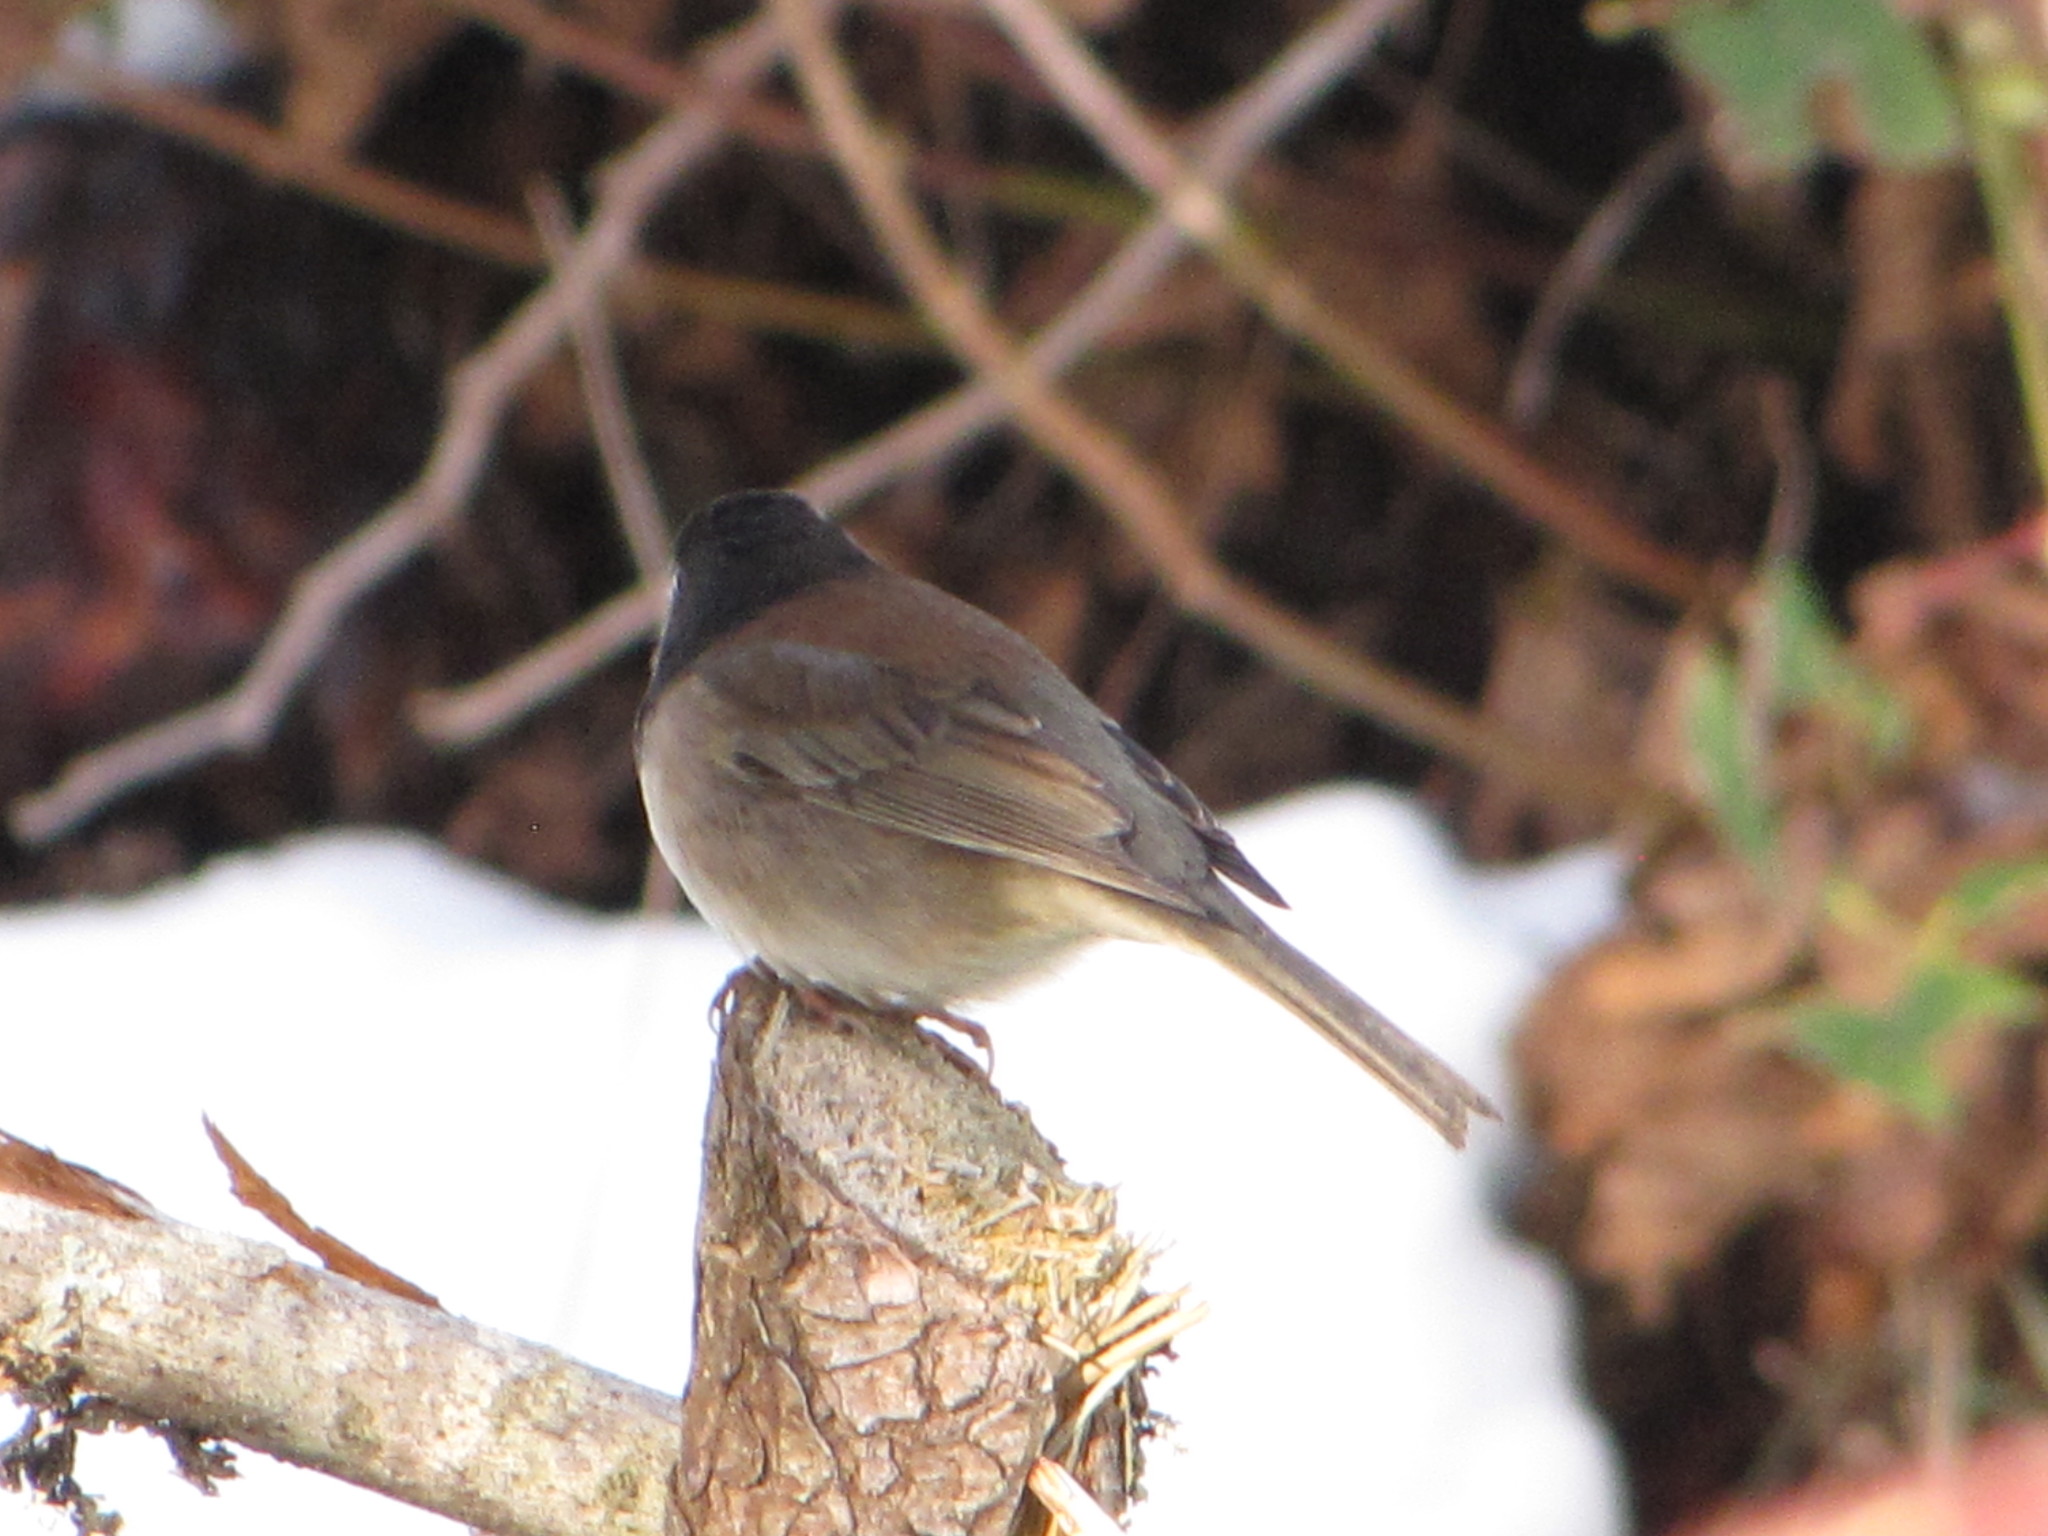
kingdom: Animalia
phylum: Chordata
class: Aves
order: Passeriformes
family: Passerellidae
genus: Junco
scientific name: Junco hyemalis
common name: Dark-eyed junco
